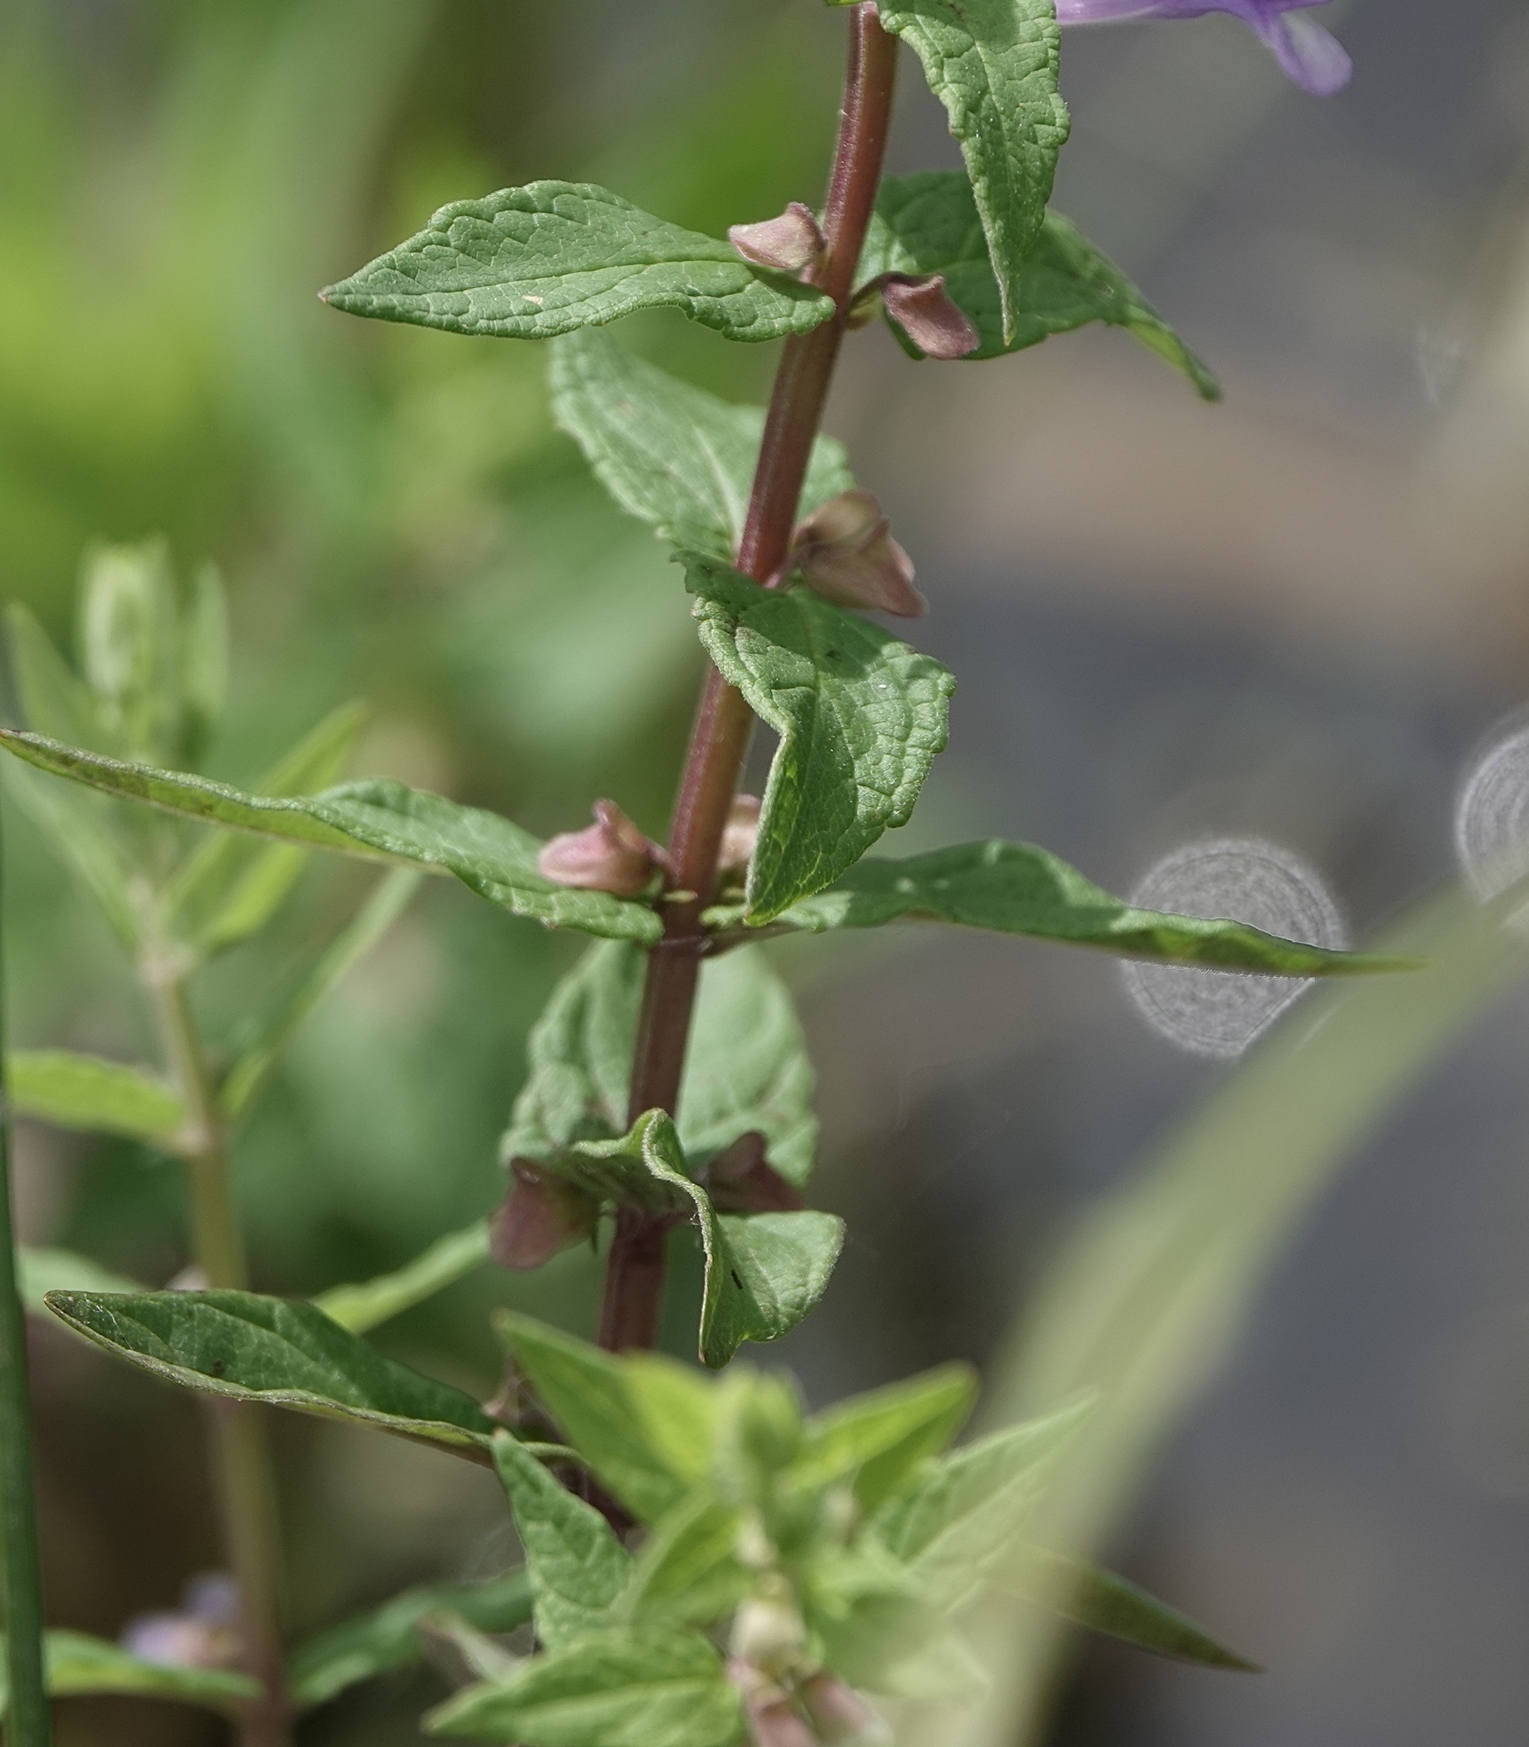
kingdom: Plantae
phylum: Tracheophyta
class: Magnoliopsida
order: Lamiales
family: Lamiaceae
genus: Scutellaria
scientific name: Scutellaria galericulata
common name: Skullcap
